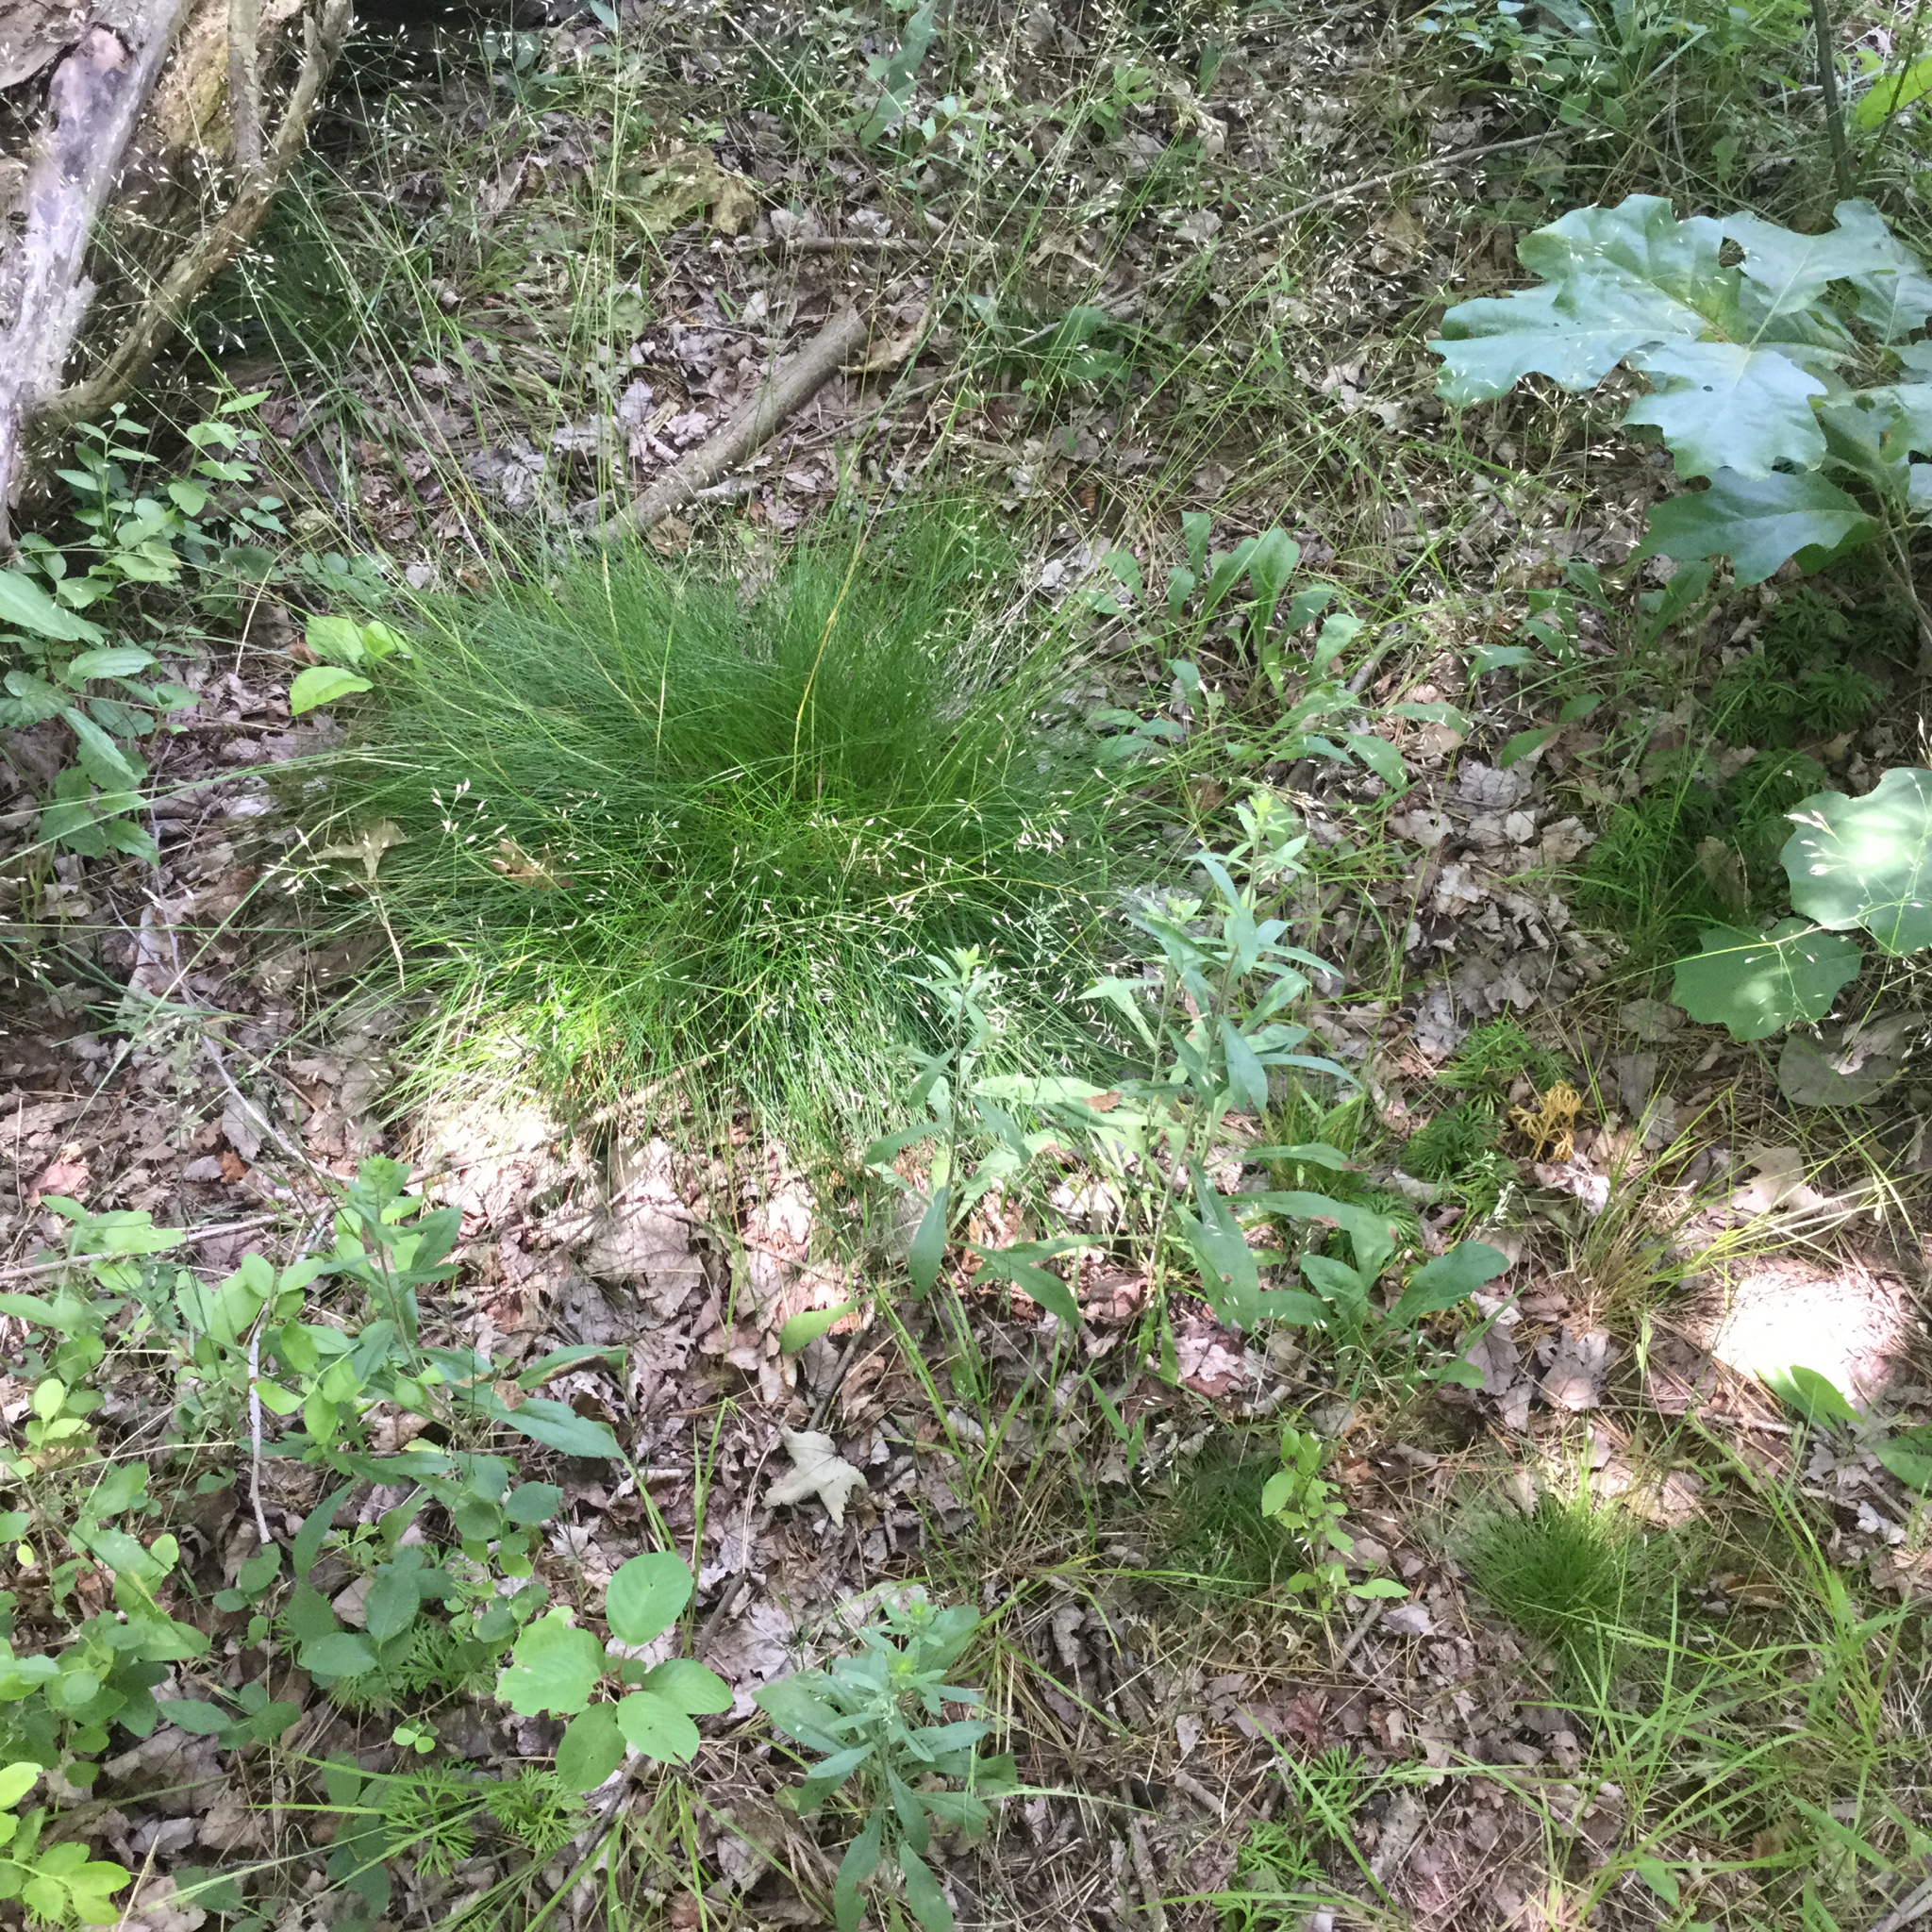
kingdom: Plantae
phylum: Tracheophyta
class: Liliopsida
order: Poales
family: Poaceae
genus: Avenella
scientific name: Avenella flexuosa
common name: Wavy hairgrass
